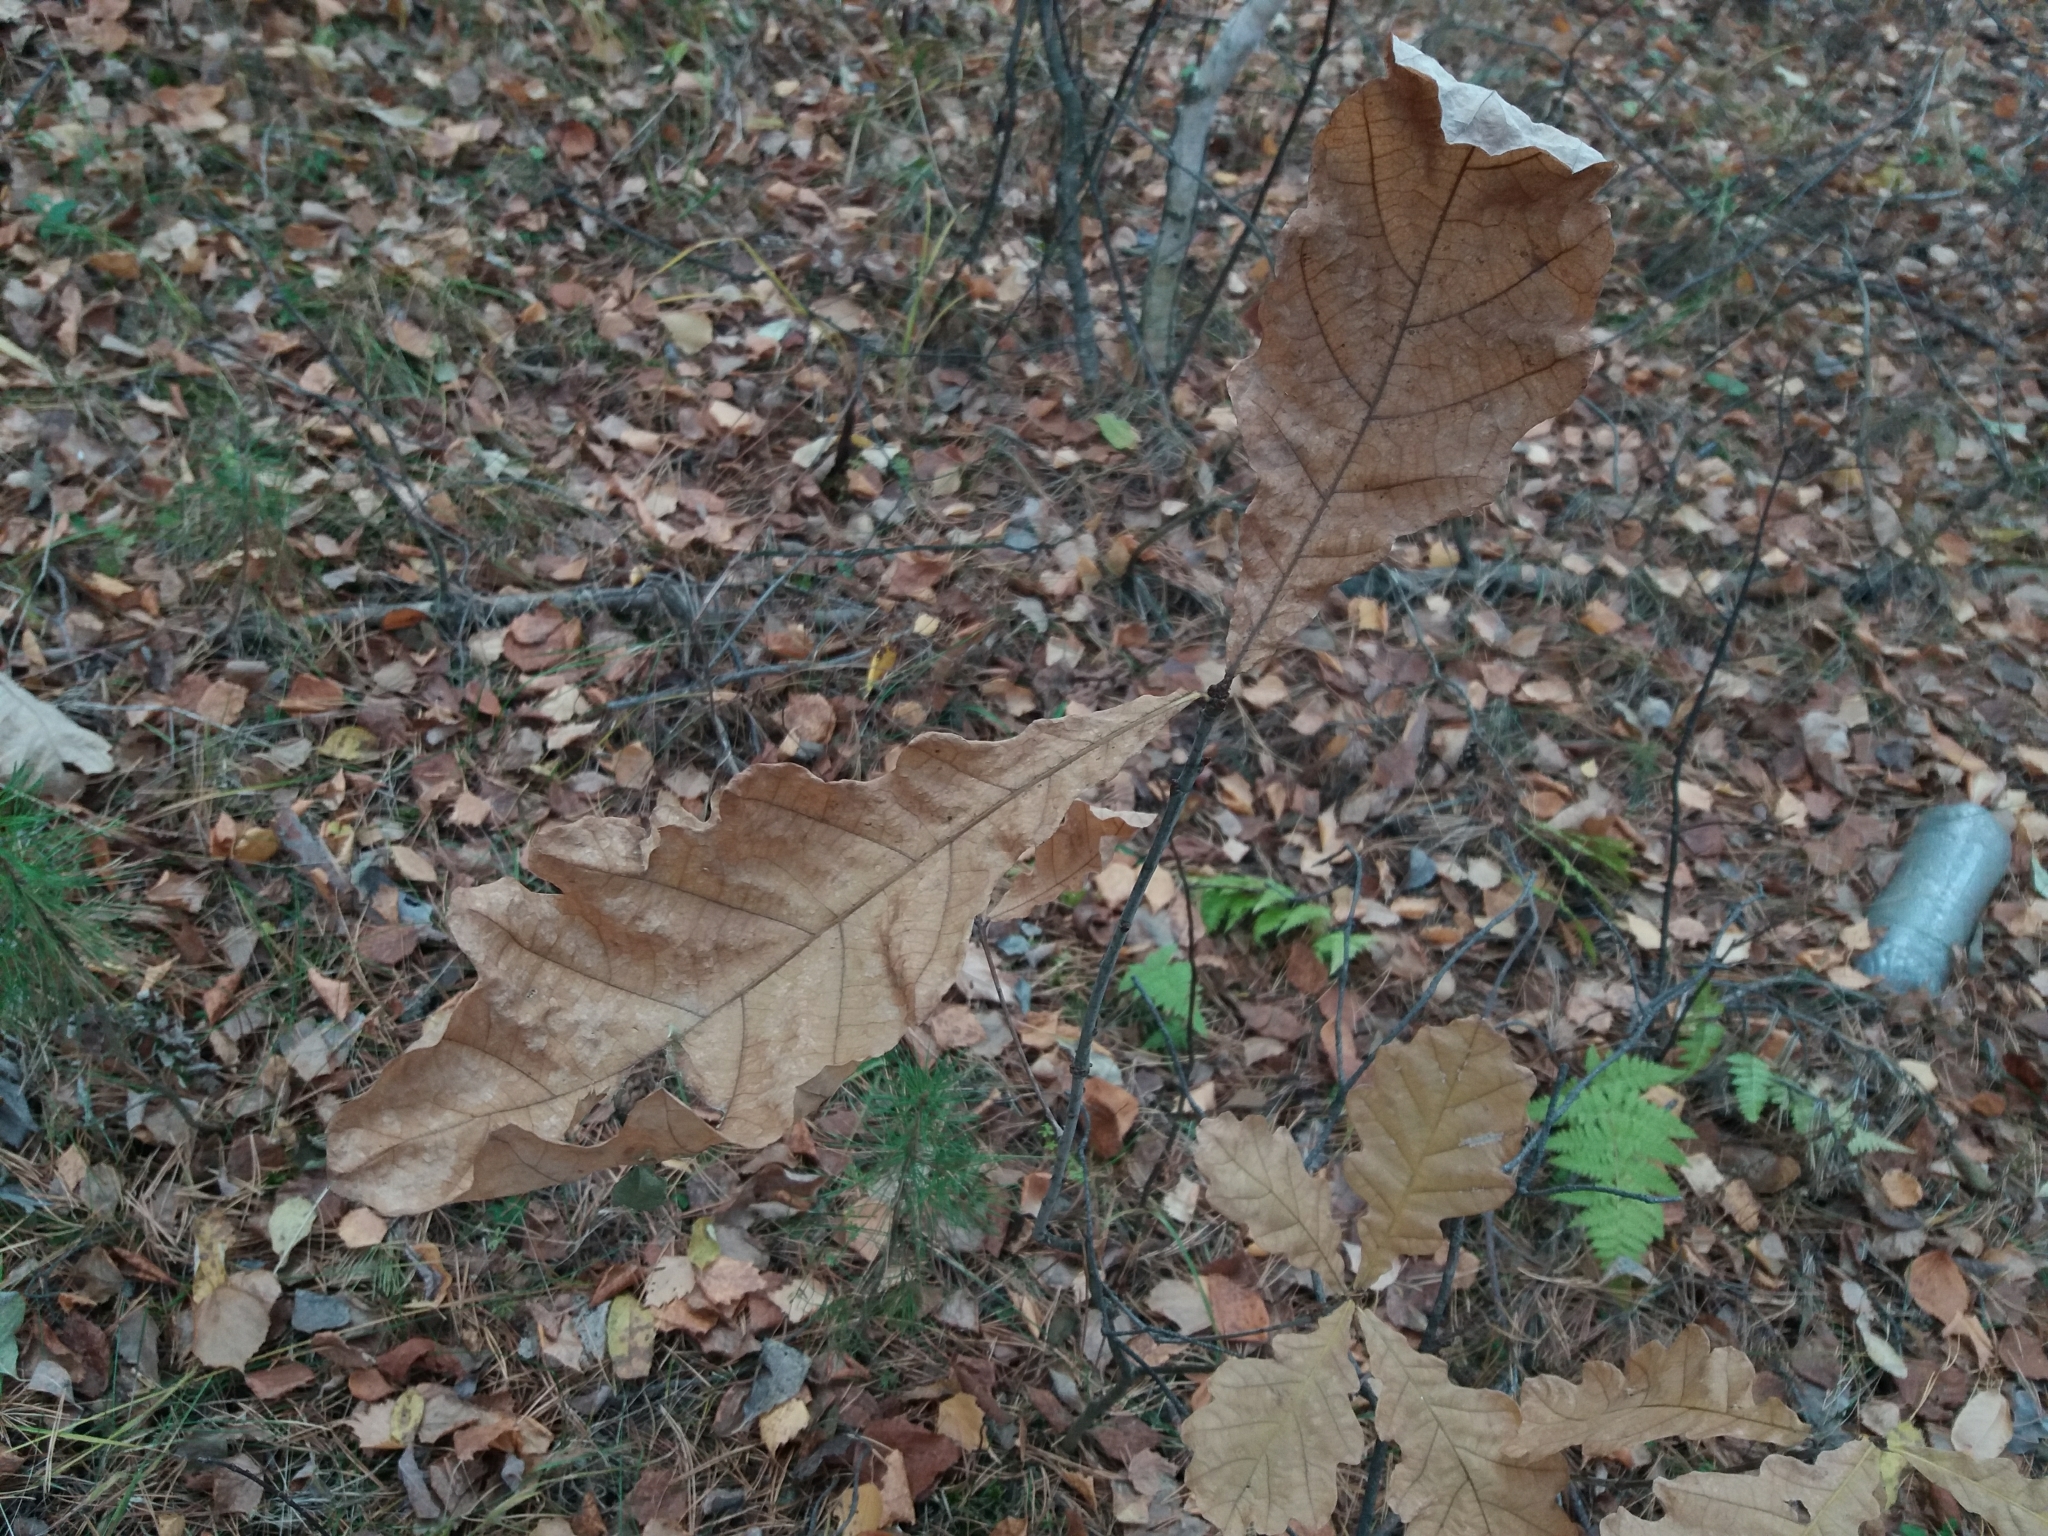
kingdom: Plantae
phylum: Tracheophyta
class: Magnoliopsida
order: Fagales
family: Fagaceae
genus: Quercus
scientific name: Quercus robur
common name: Pedunculate oak
